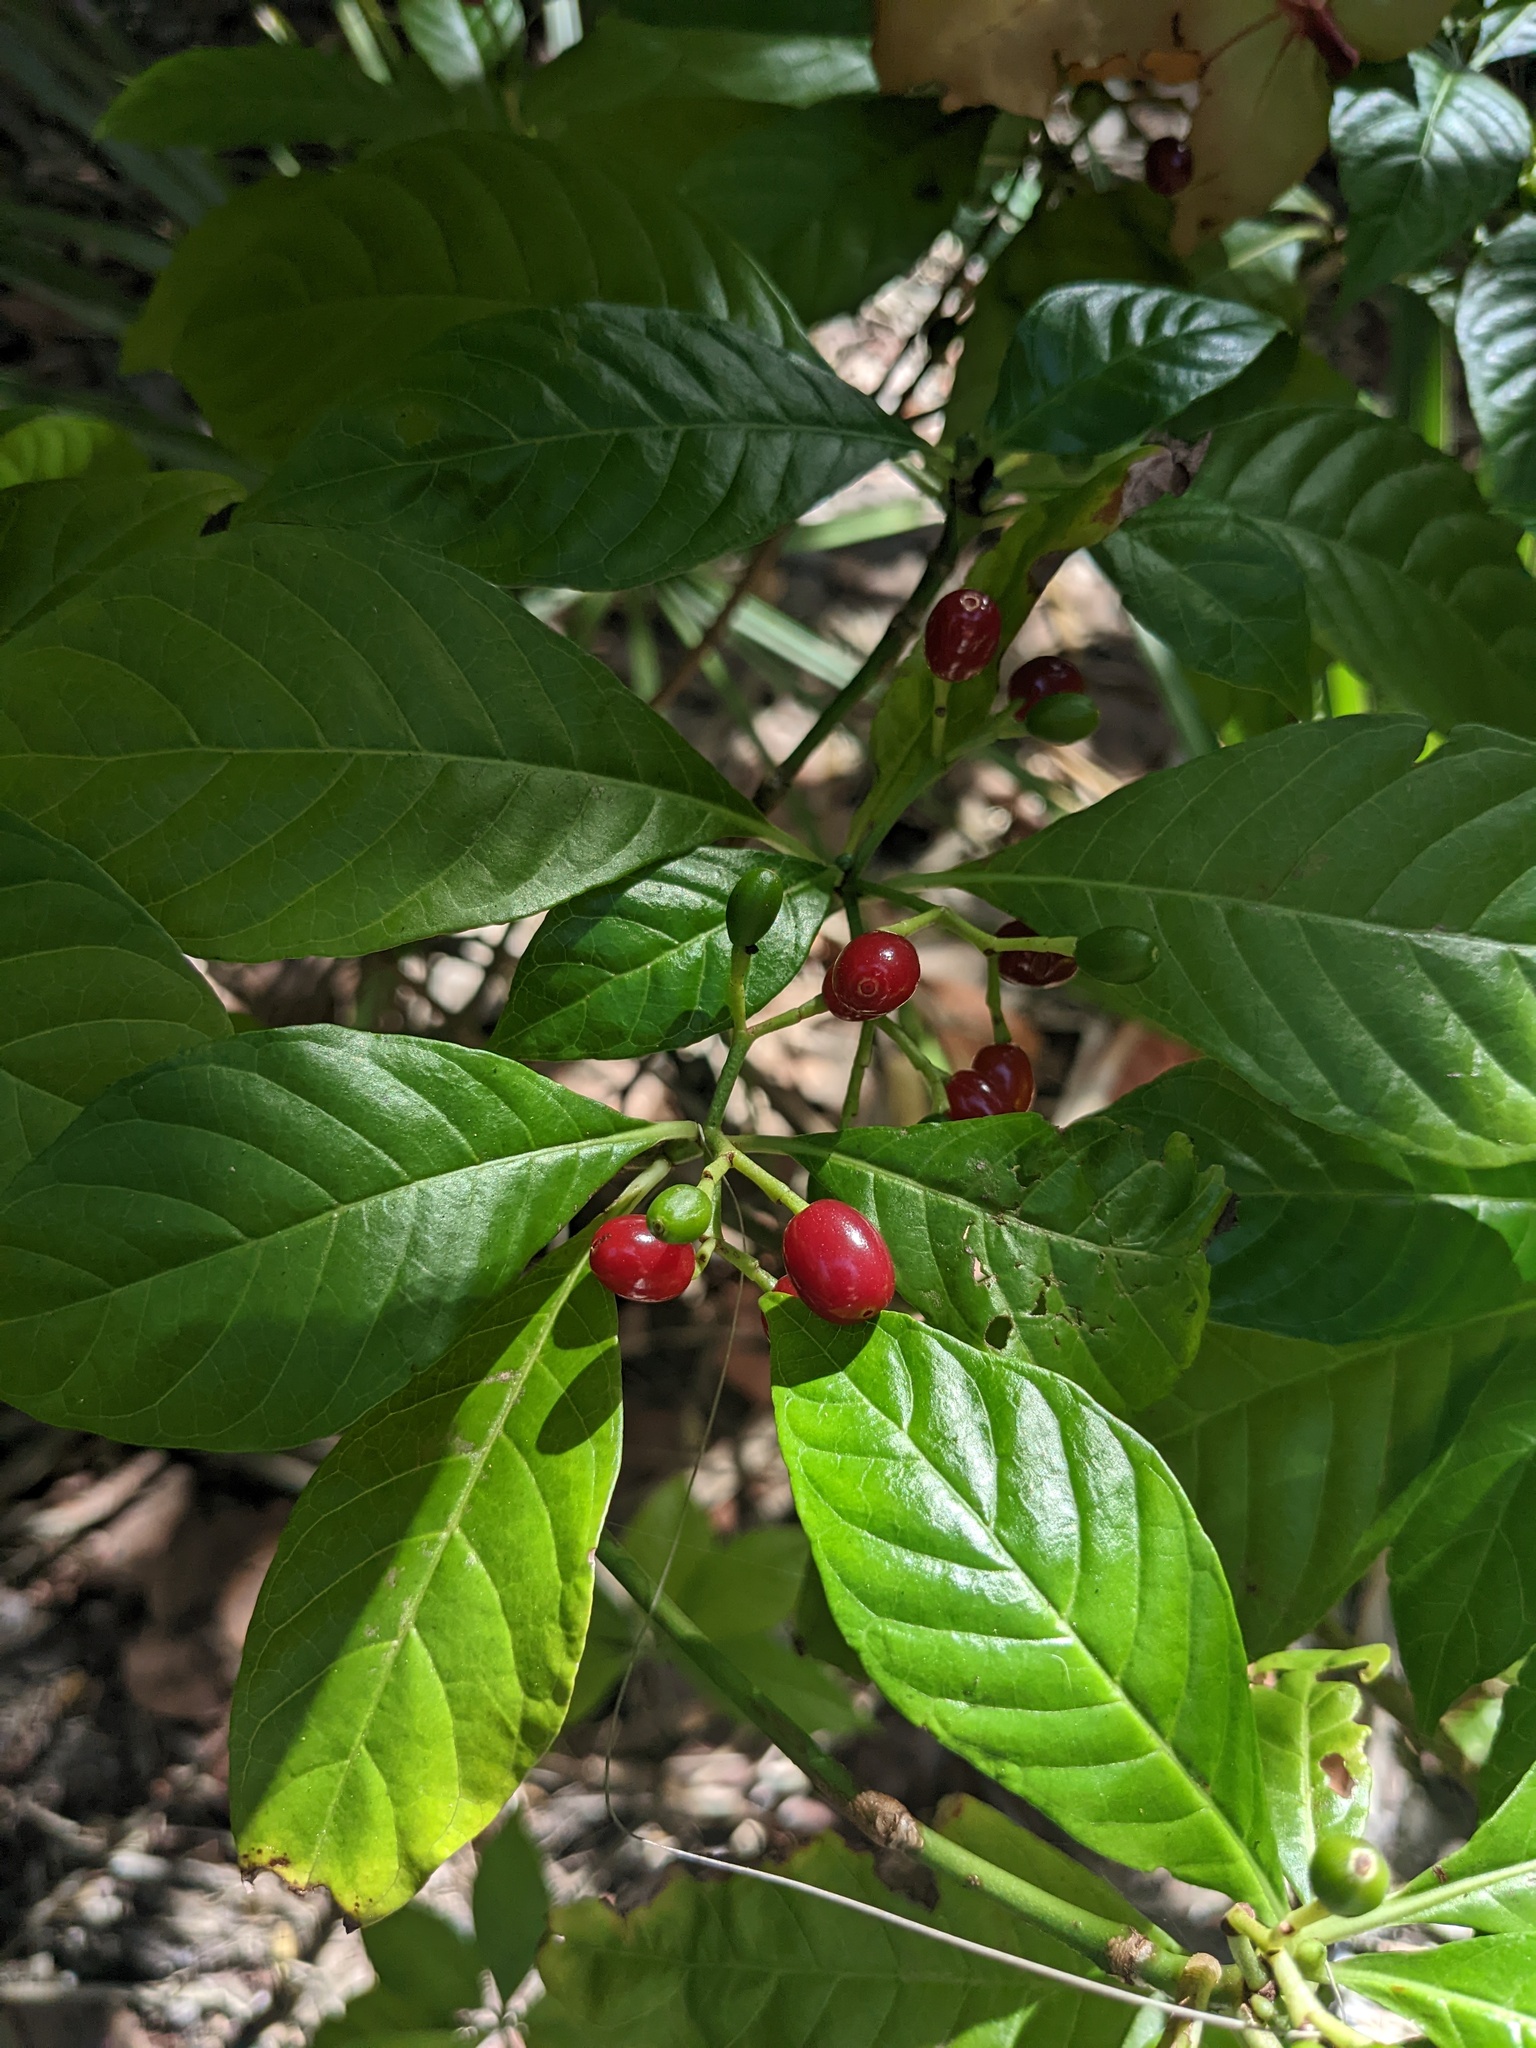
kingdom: Plantae
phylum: Tracheophyta
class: Magnoliopsida
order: Gentianales
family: Rubiaceae
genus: Psychotria
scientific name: Psychotria nervosa
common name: Bastard cankerberry
